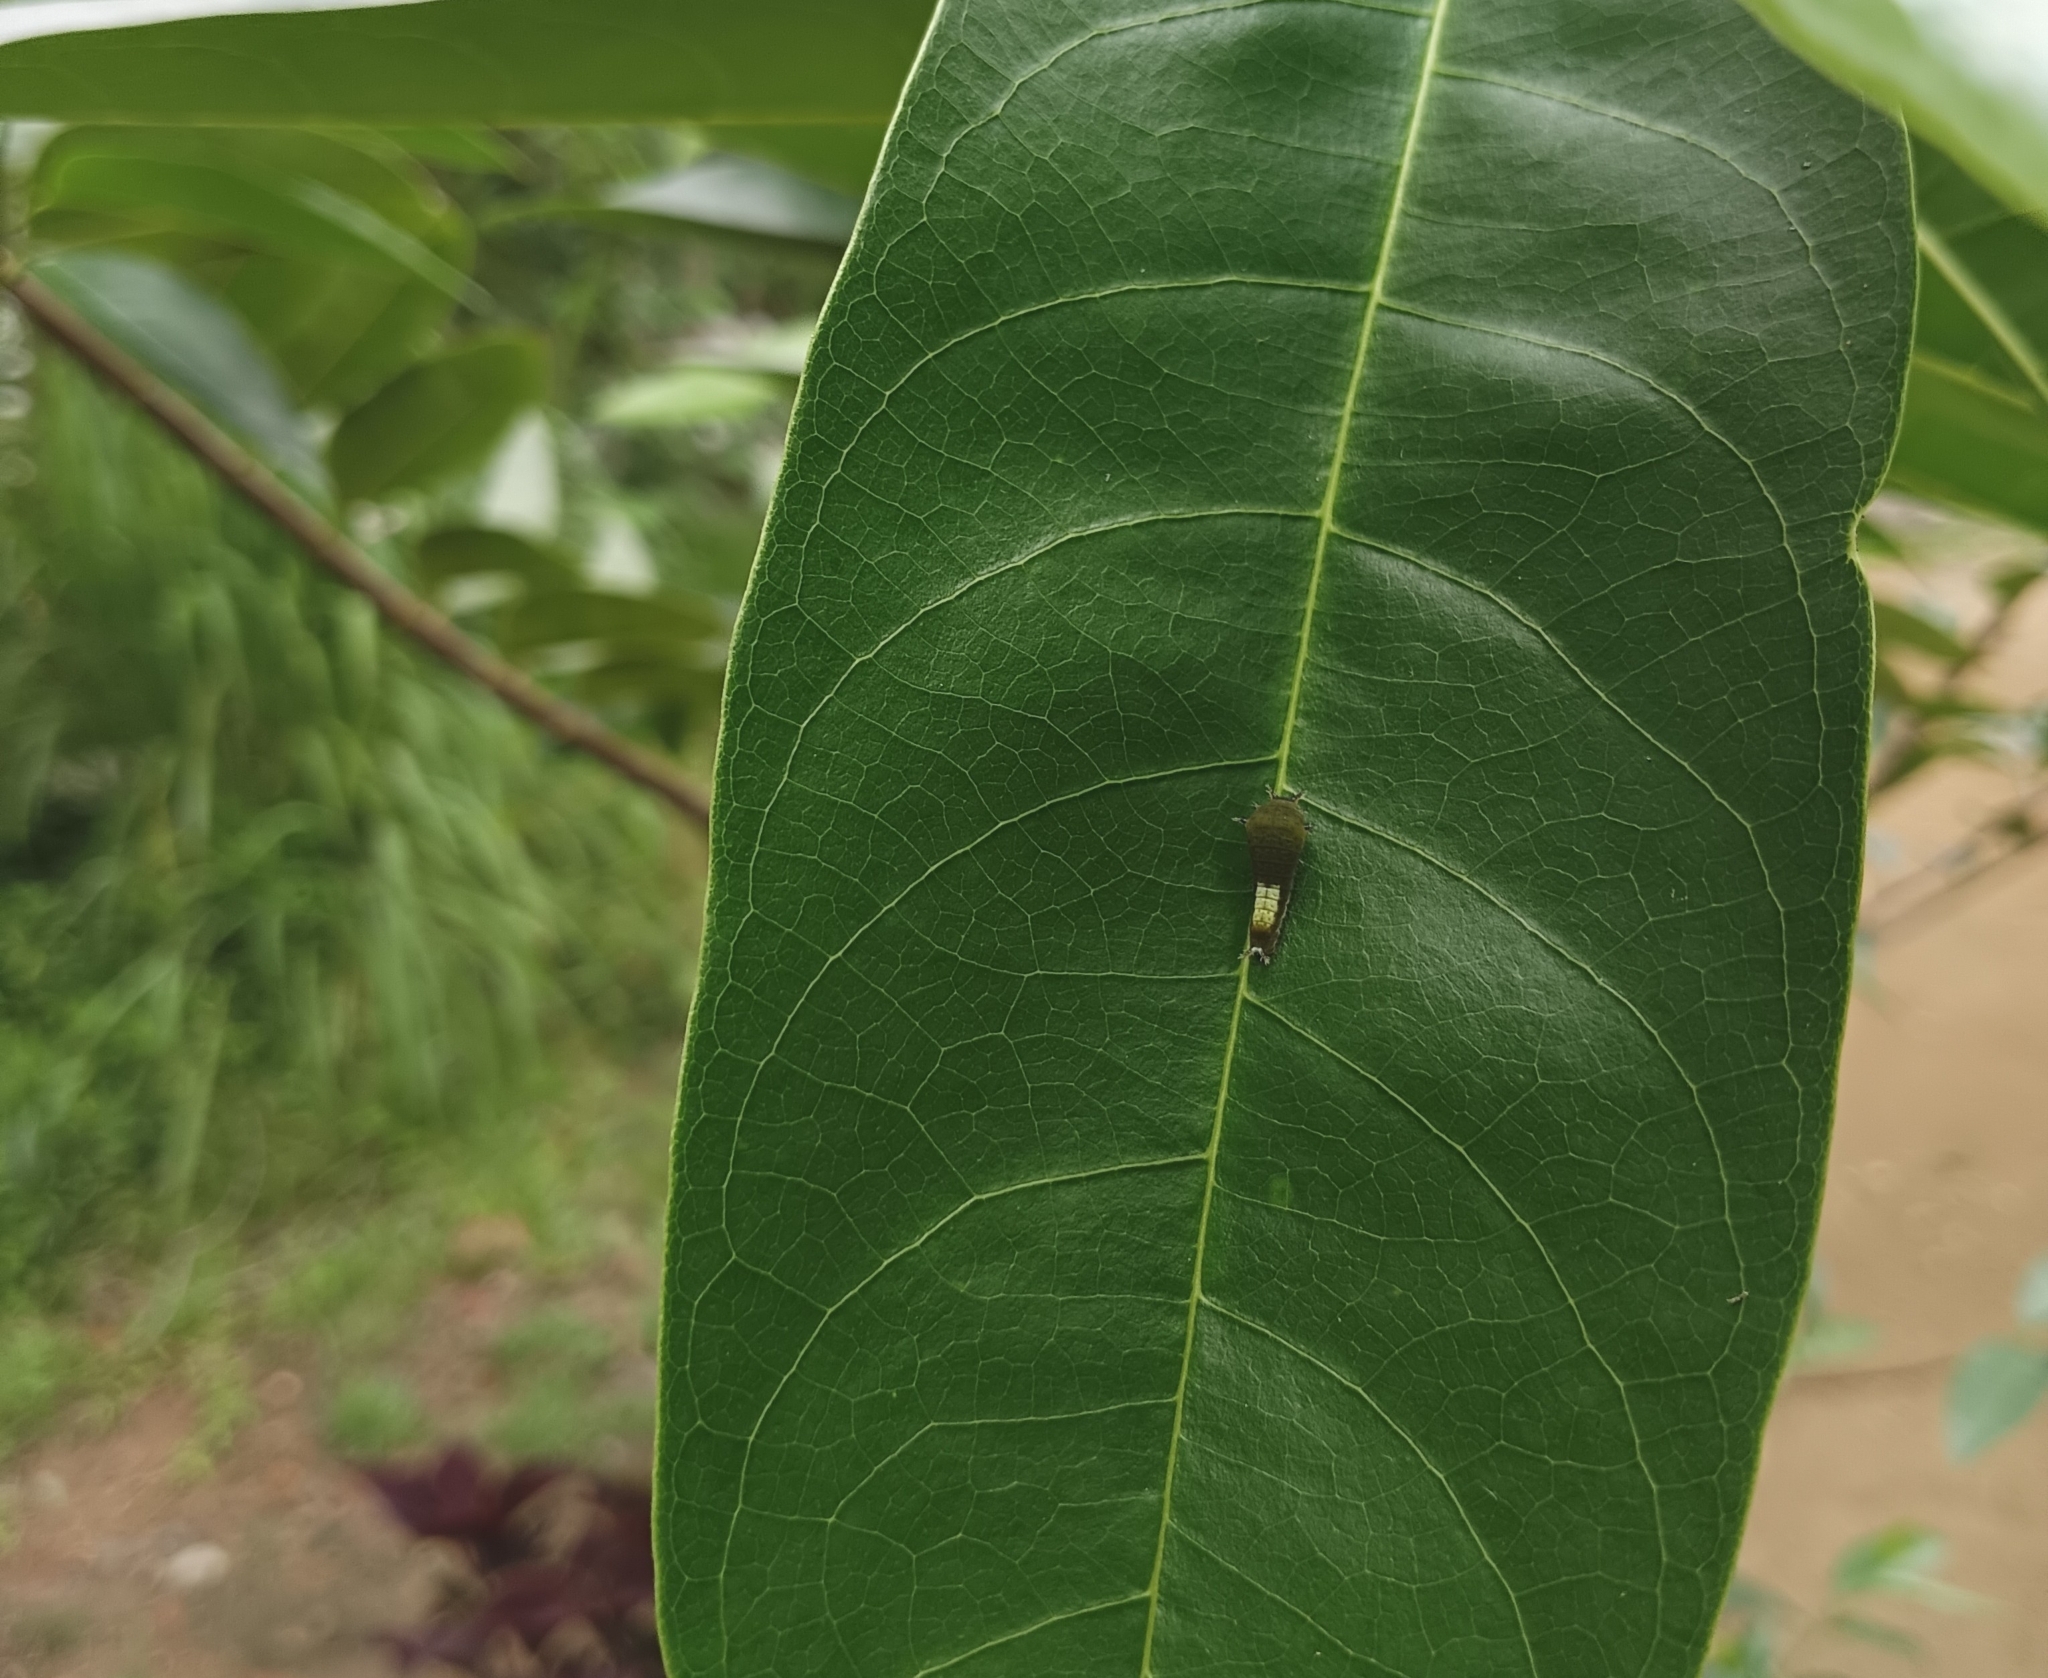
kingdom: Animalia
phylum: Arthropoda
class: Insecta
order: Lepidoptera
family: Papilionidae
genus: Graphium
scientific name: Graphium agamemnon
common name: Tailed jay
